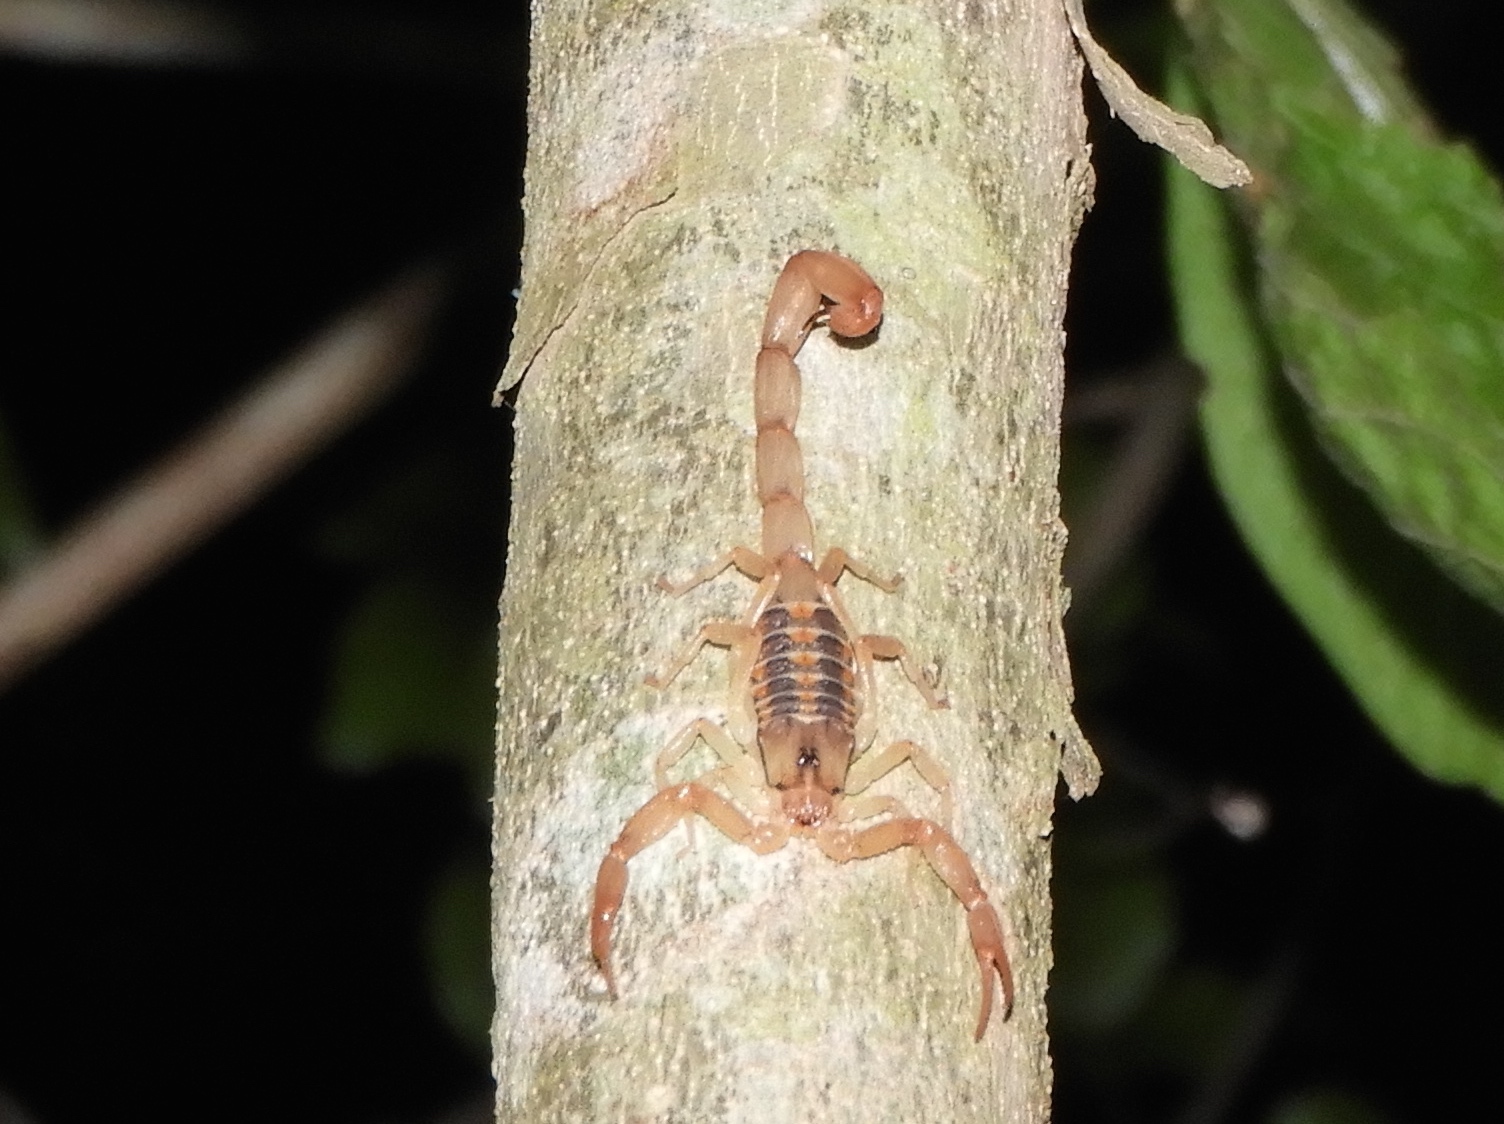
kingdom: Animalia
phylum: Arthropoda
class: Arachnida
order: Scorpiones
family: Buthidae
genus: Centruroides
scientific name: Centruroides pallidiceps
